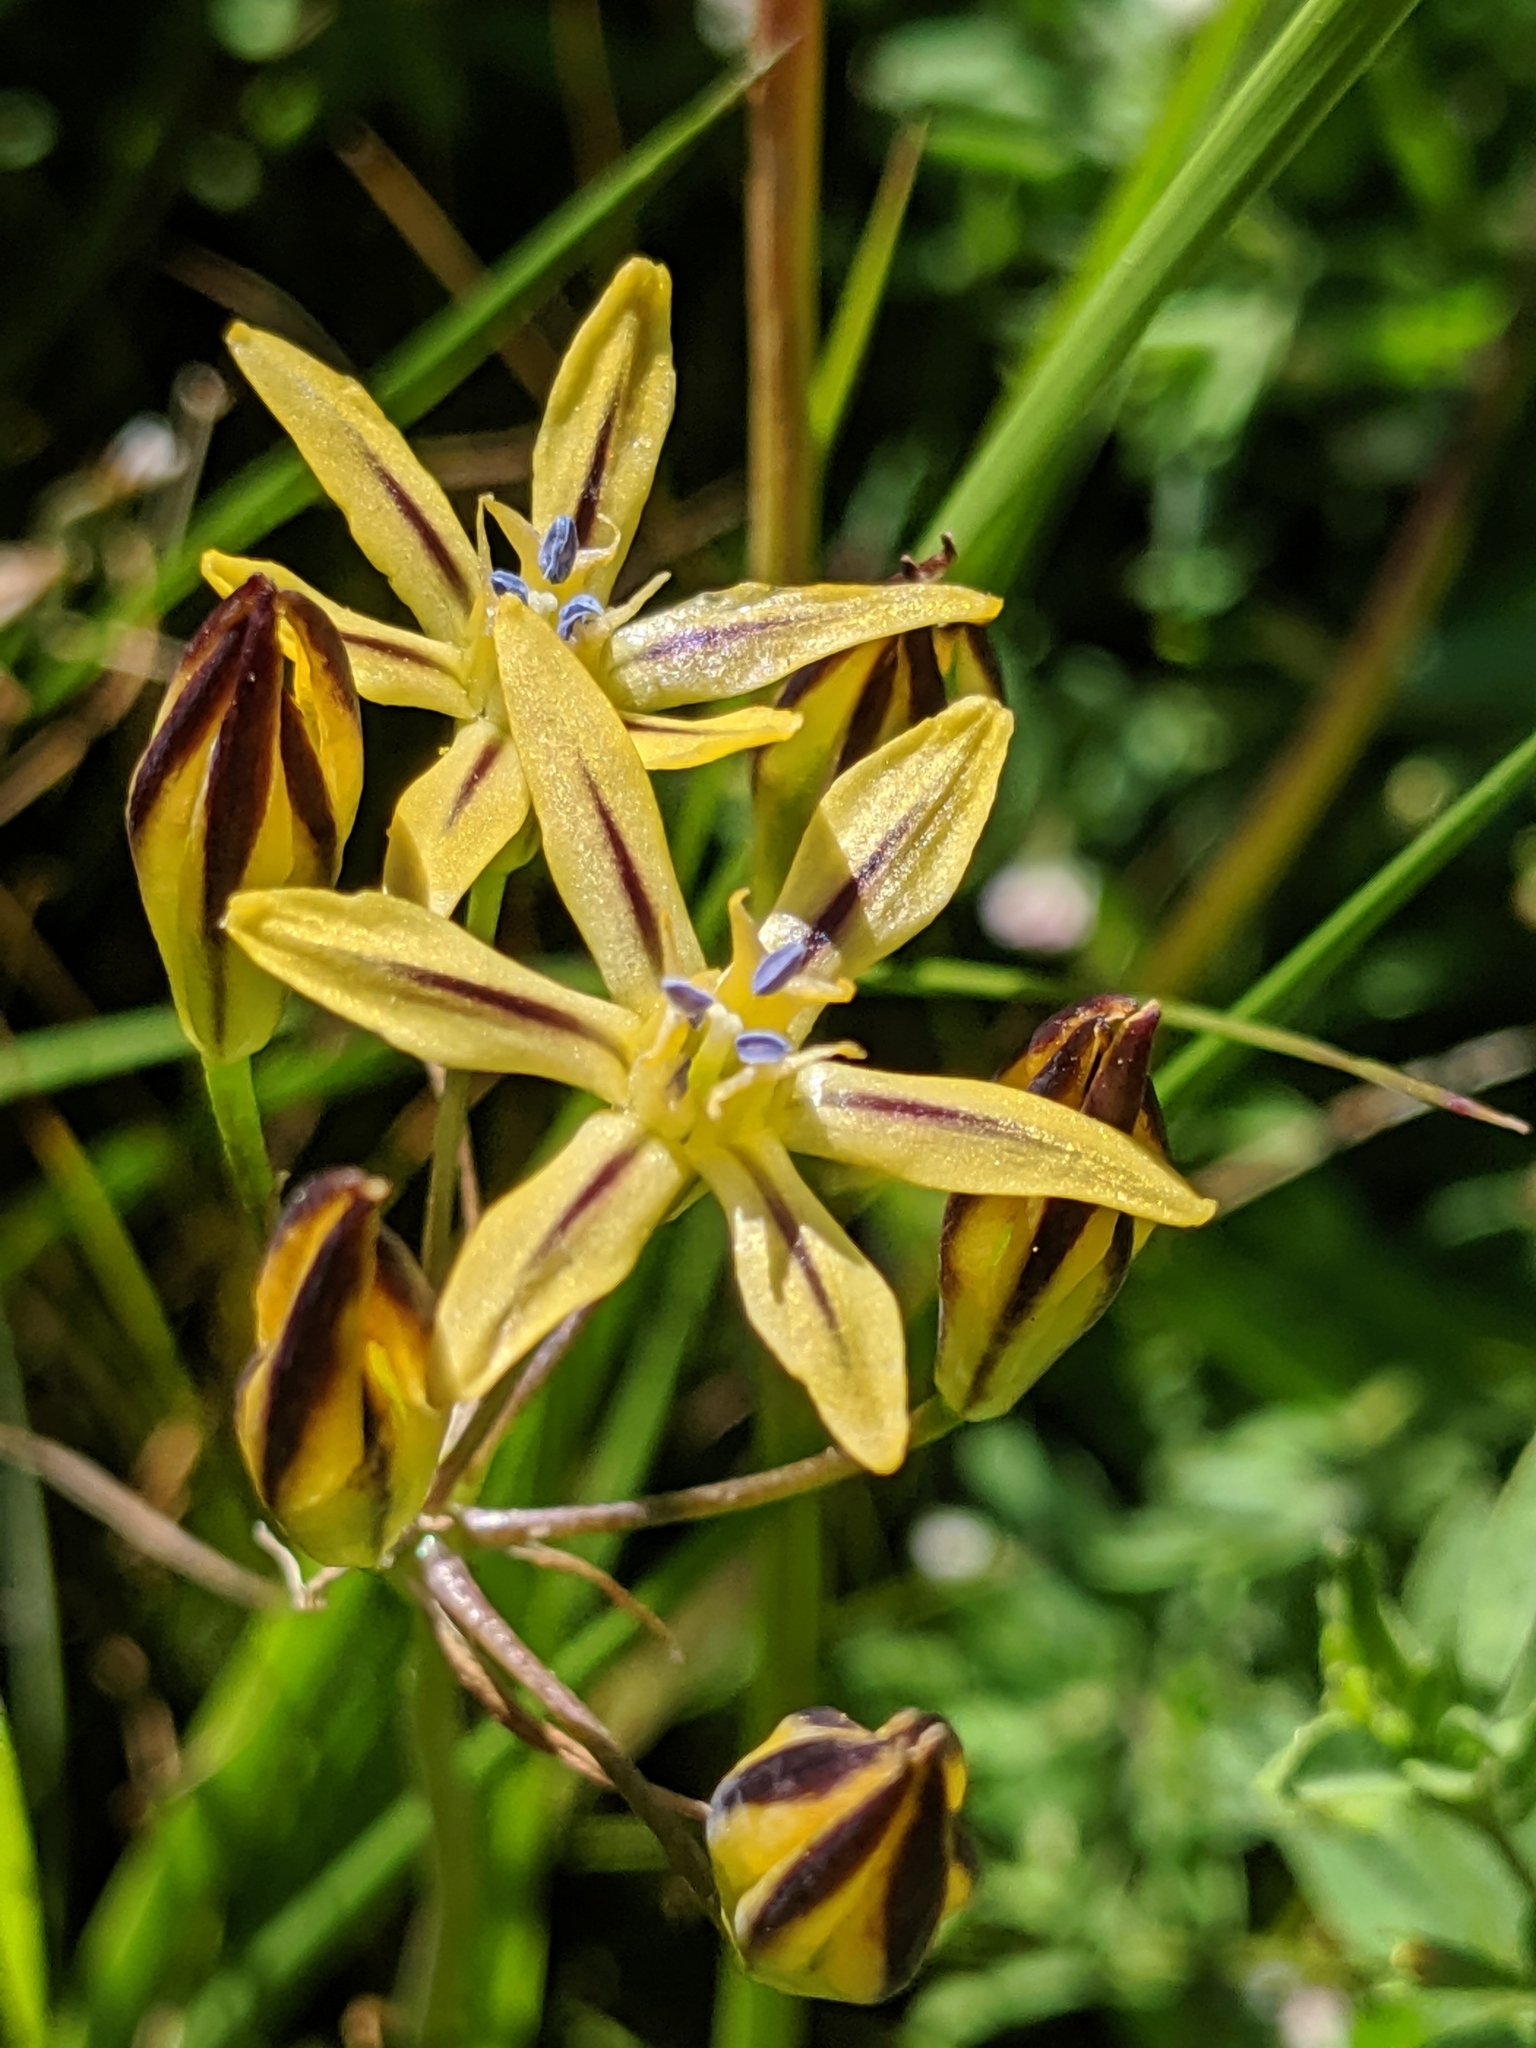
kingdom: Plantae
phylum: Tracheophyta
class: Liliopsida
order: Asparagales
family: Asparagaceae
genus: Triteleia
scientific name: Triteleia ixioides
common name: Yellow-brodiaea
